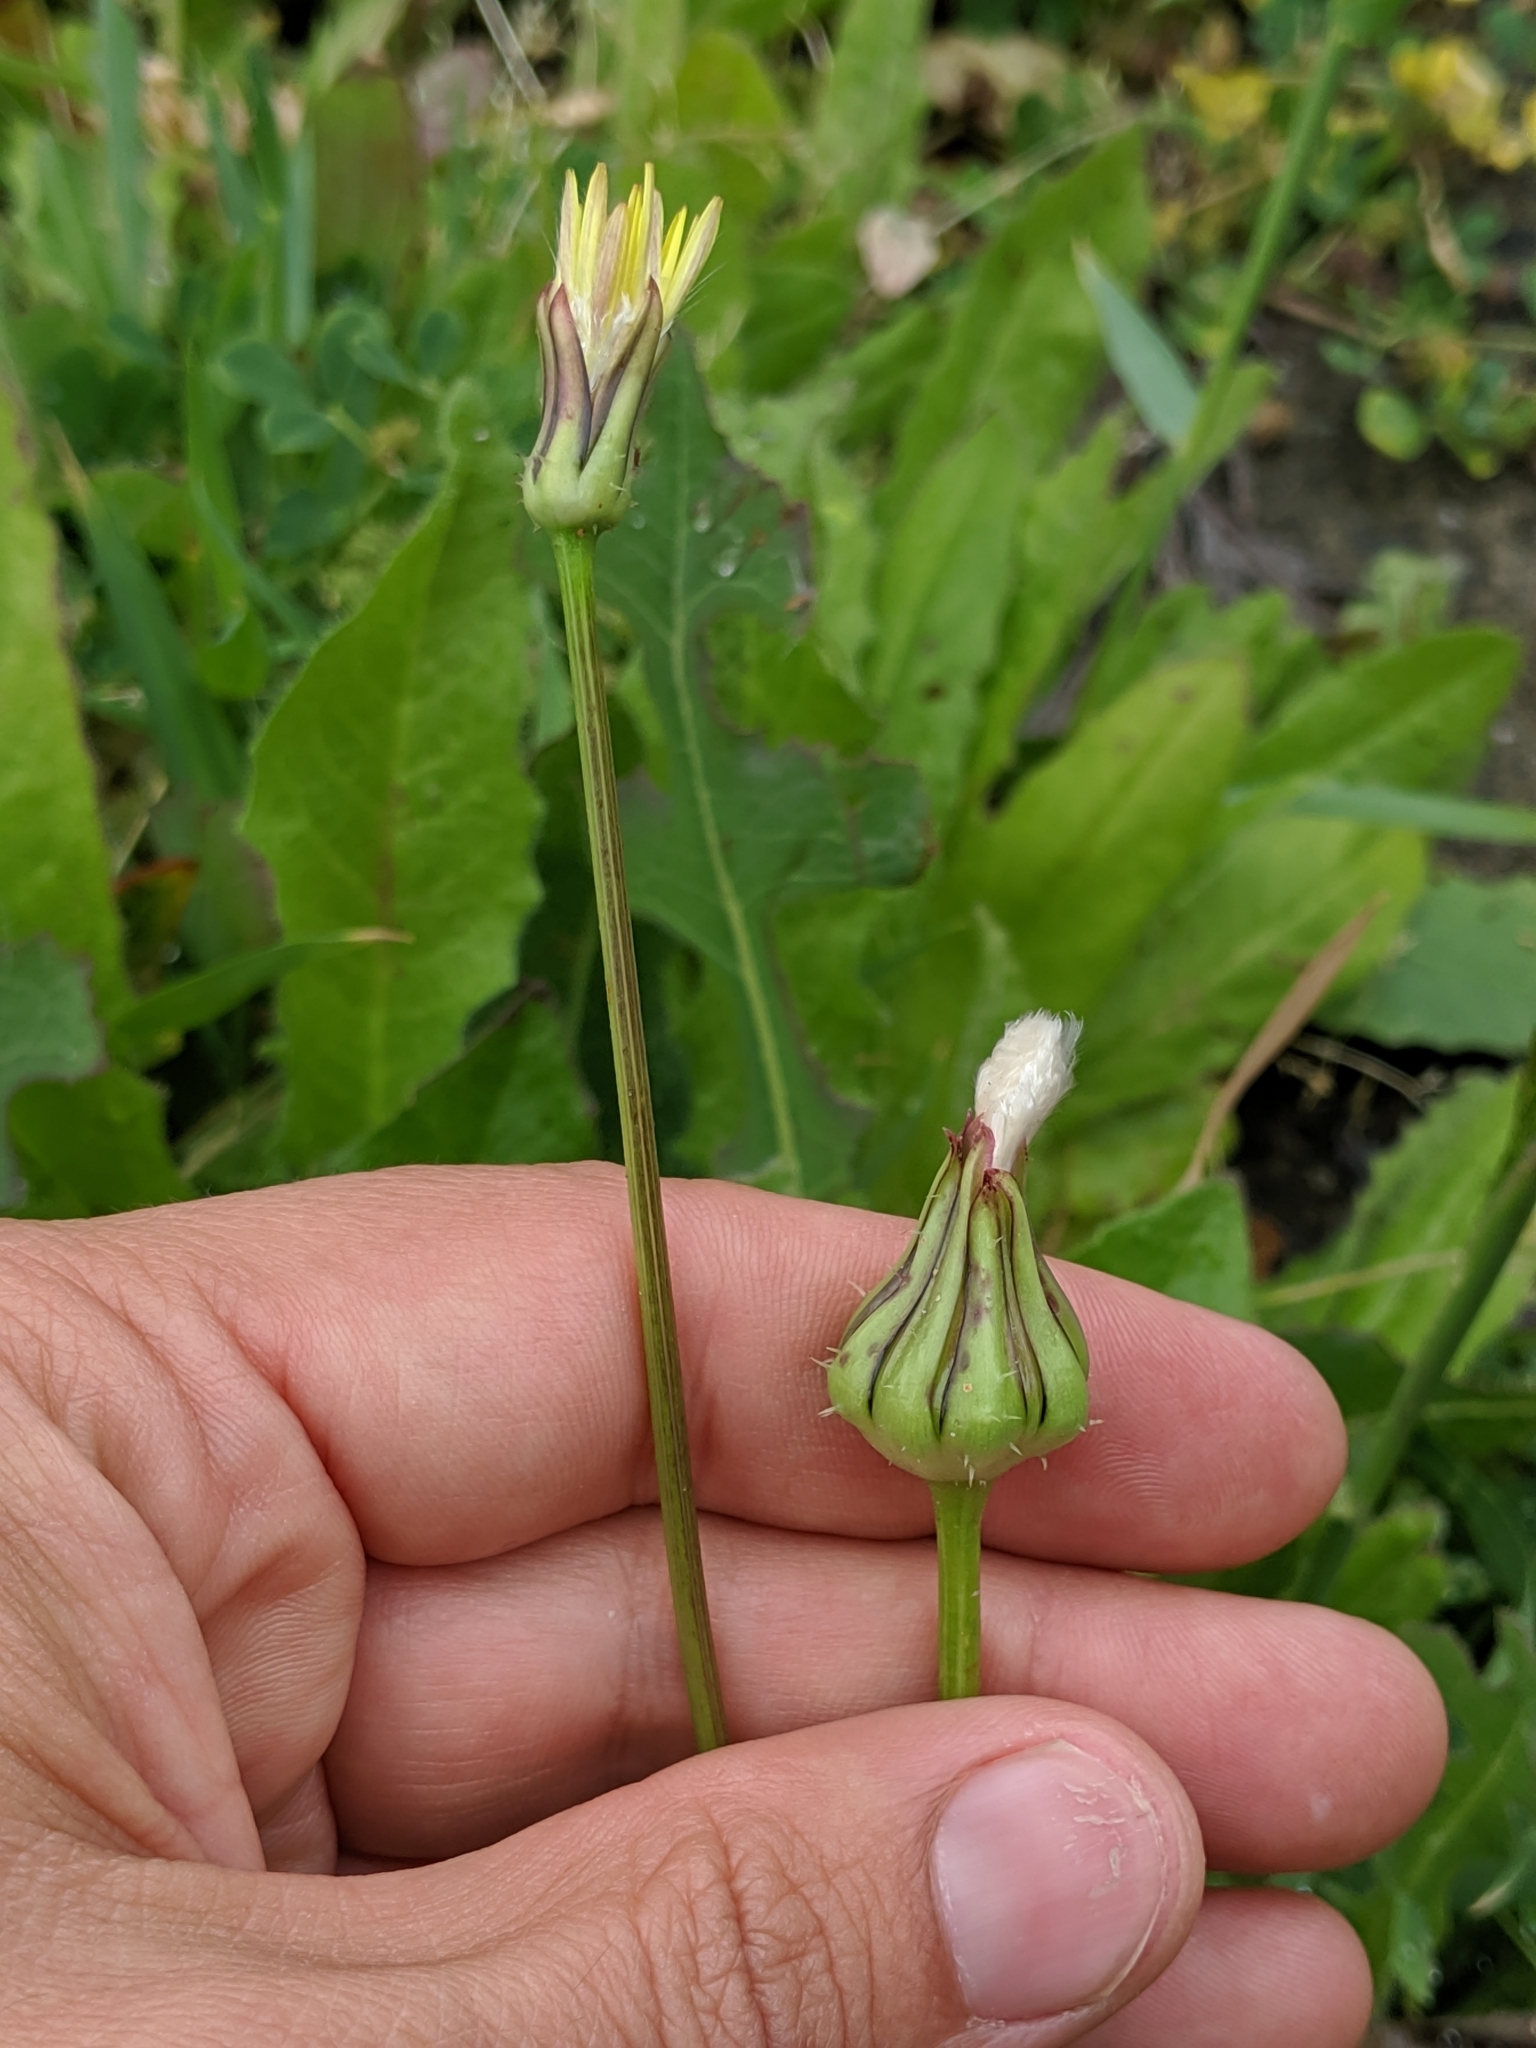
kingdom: Plantae
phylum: Tracheophyta
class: Magnoliopsida
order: Asterales
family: Asteraceae
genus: Urospermum
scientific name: Urospermum picroides
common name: False hawkbit
